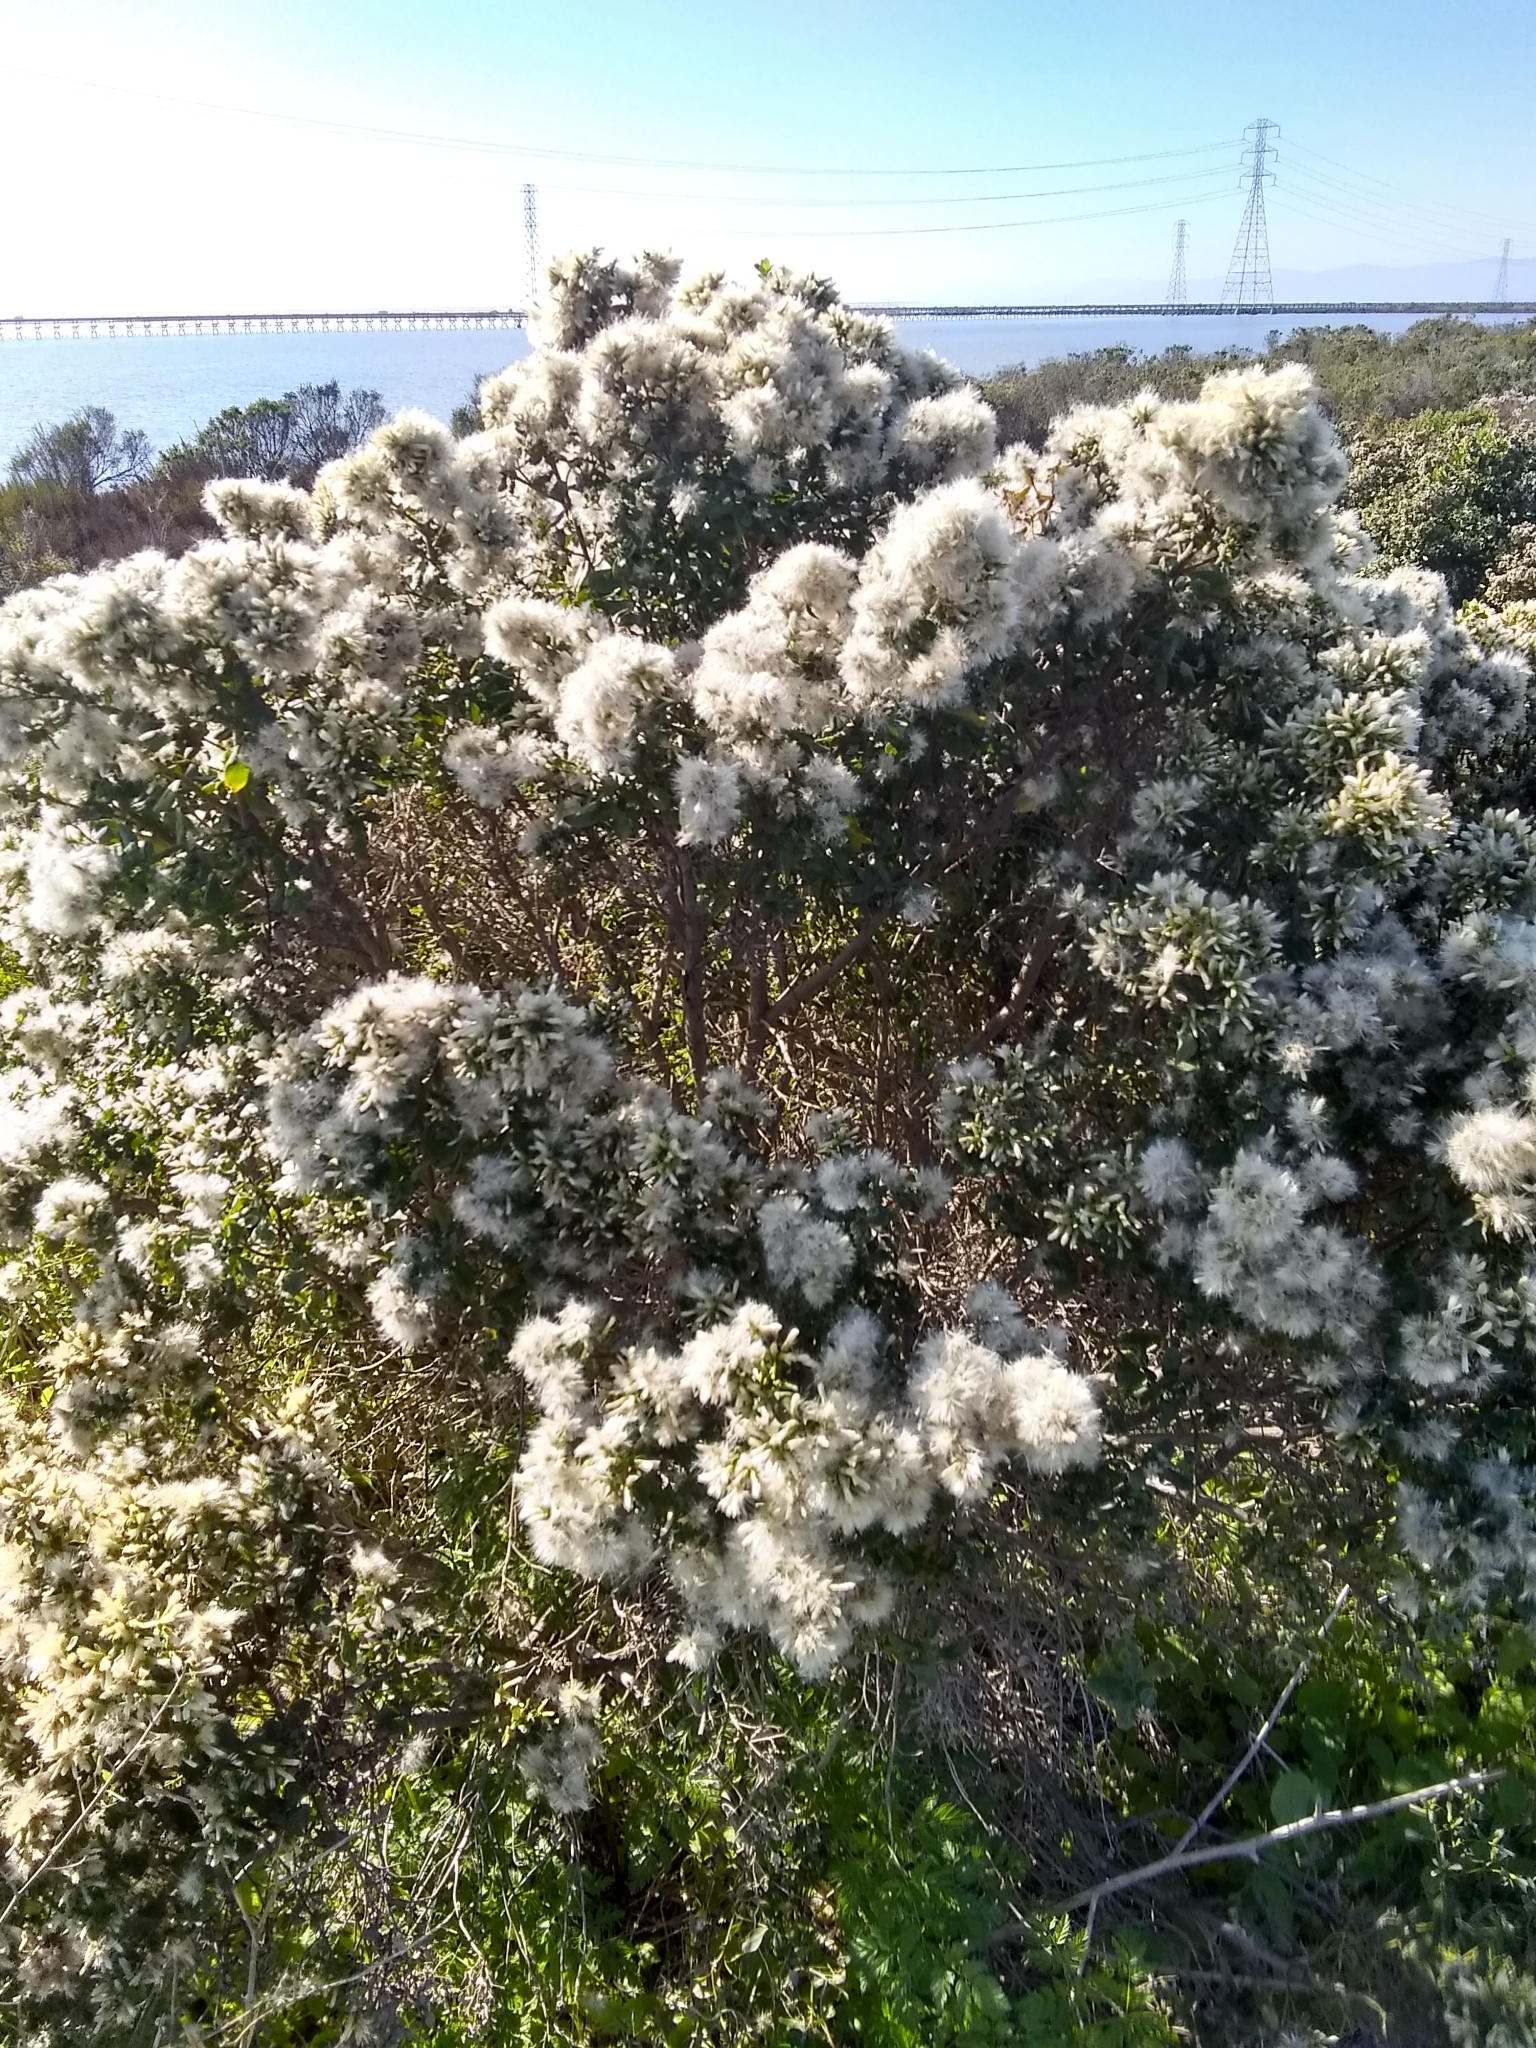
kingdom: Plantae
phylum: Tracheophyta
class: Magnoliopsida
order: Asterales
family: Asteraceae
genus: Baccharis
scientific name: Baccharis pilularis
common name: Coyotebrush
